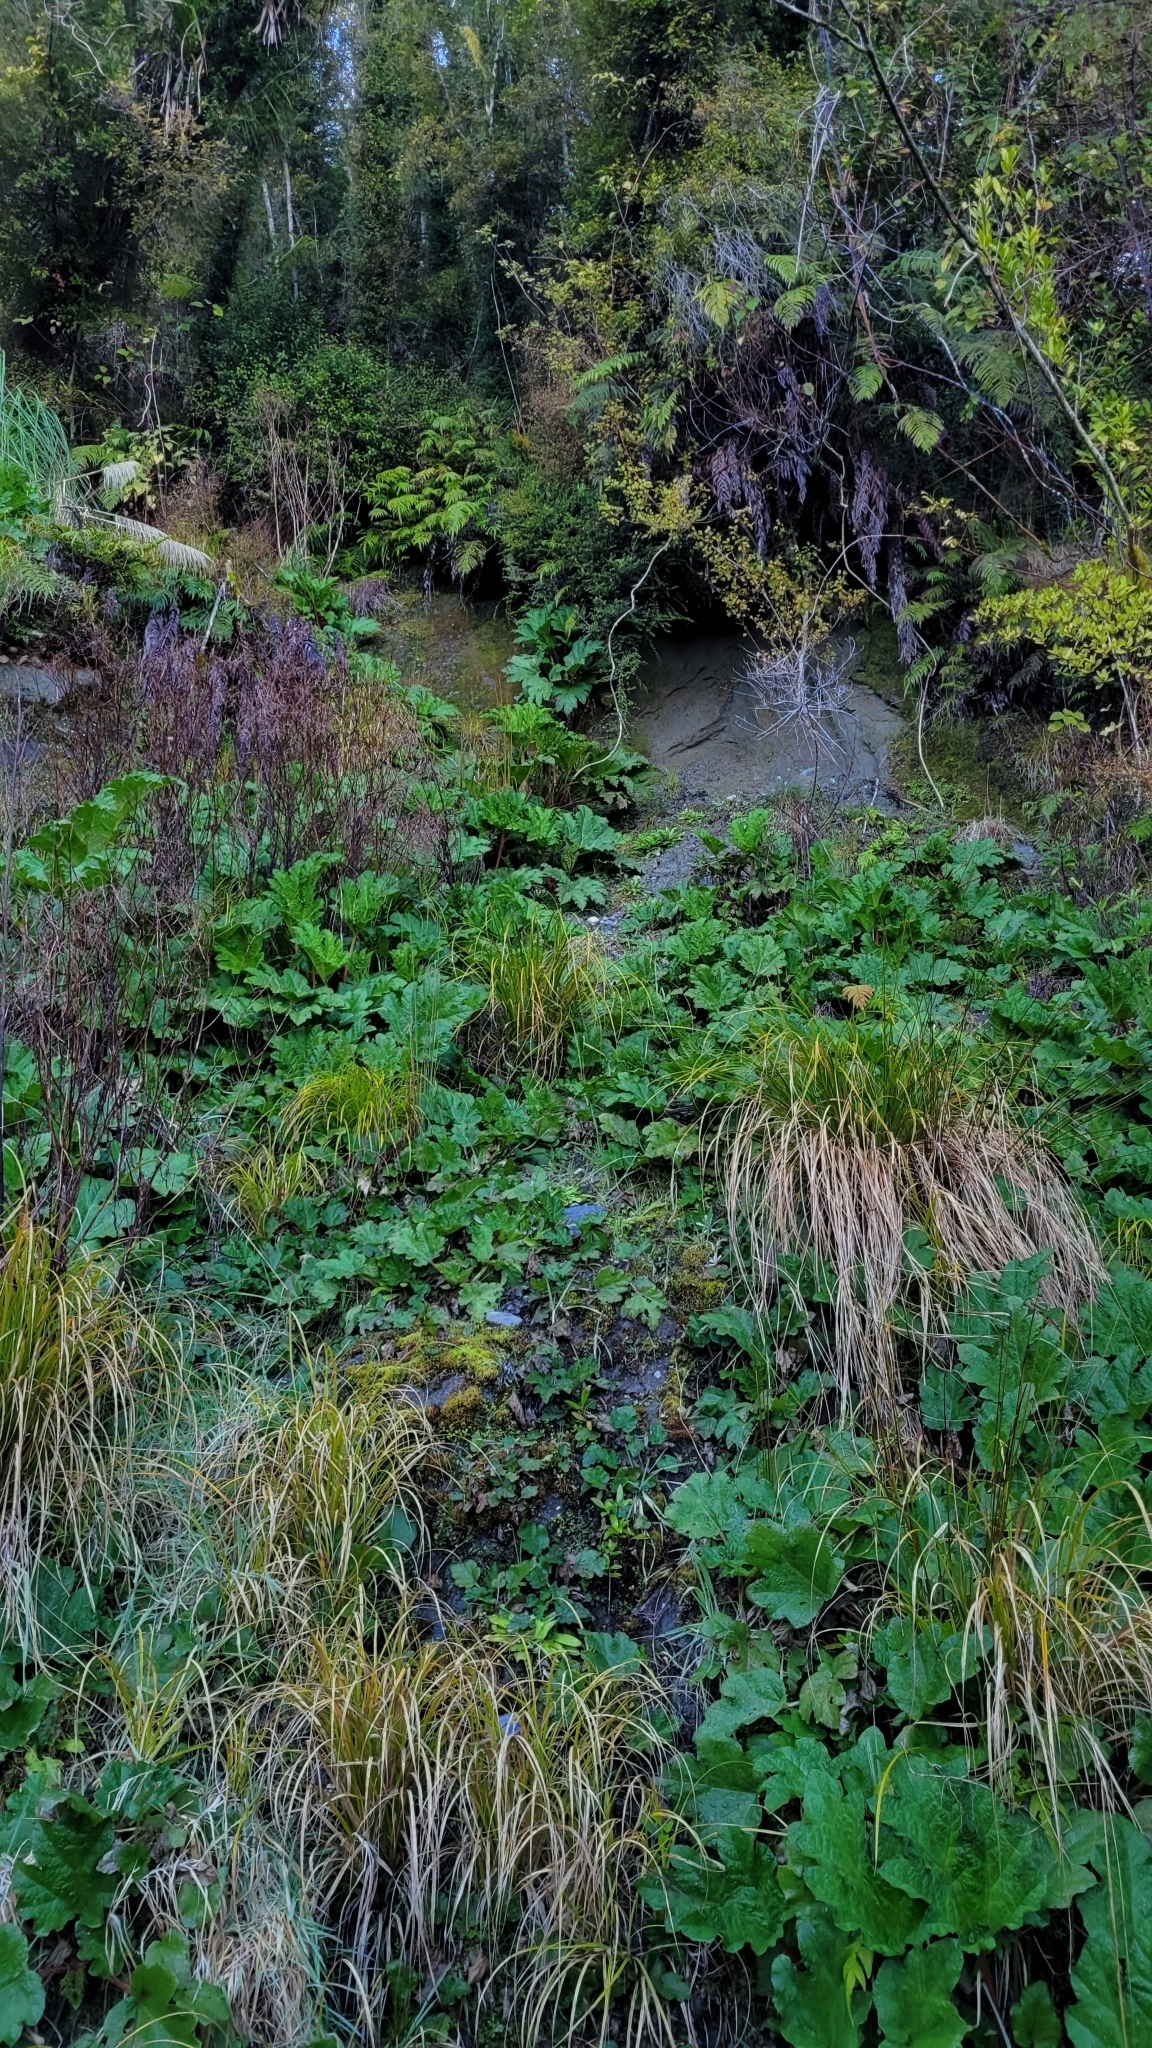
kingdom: Plantae
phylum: Tracheophyta
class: Magnoliopsida
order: Gunnerales
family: Gunneraceae
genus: Gunnera
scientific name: Gunnera tinctoria
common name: Giant-rhubarb
